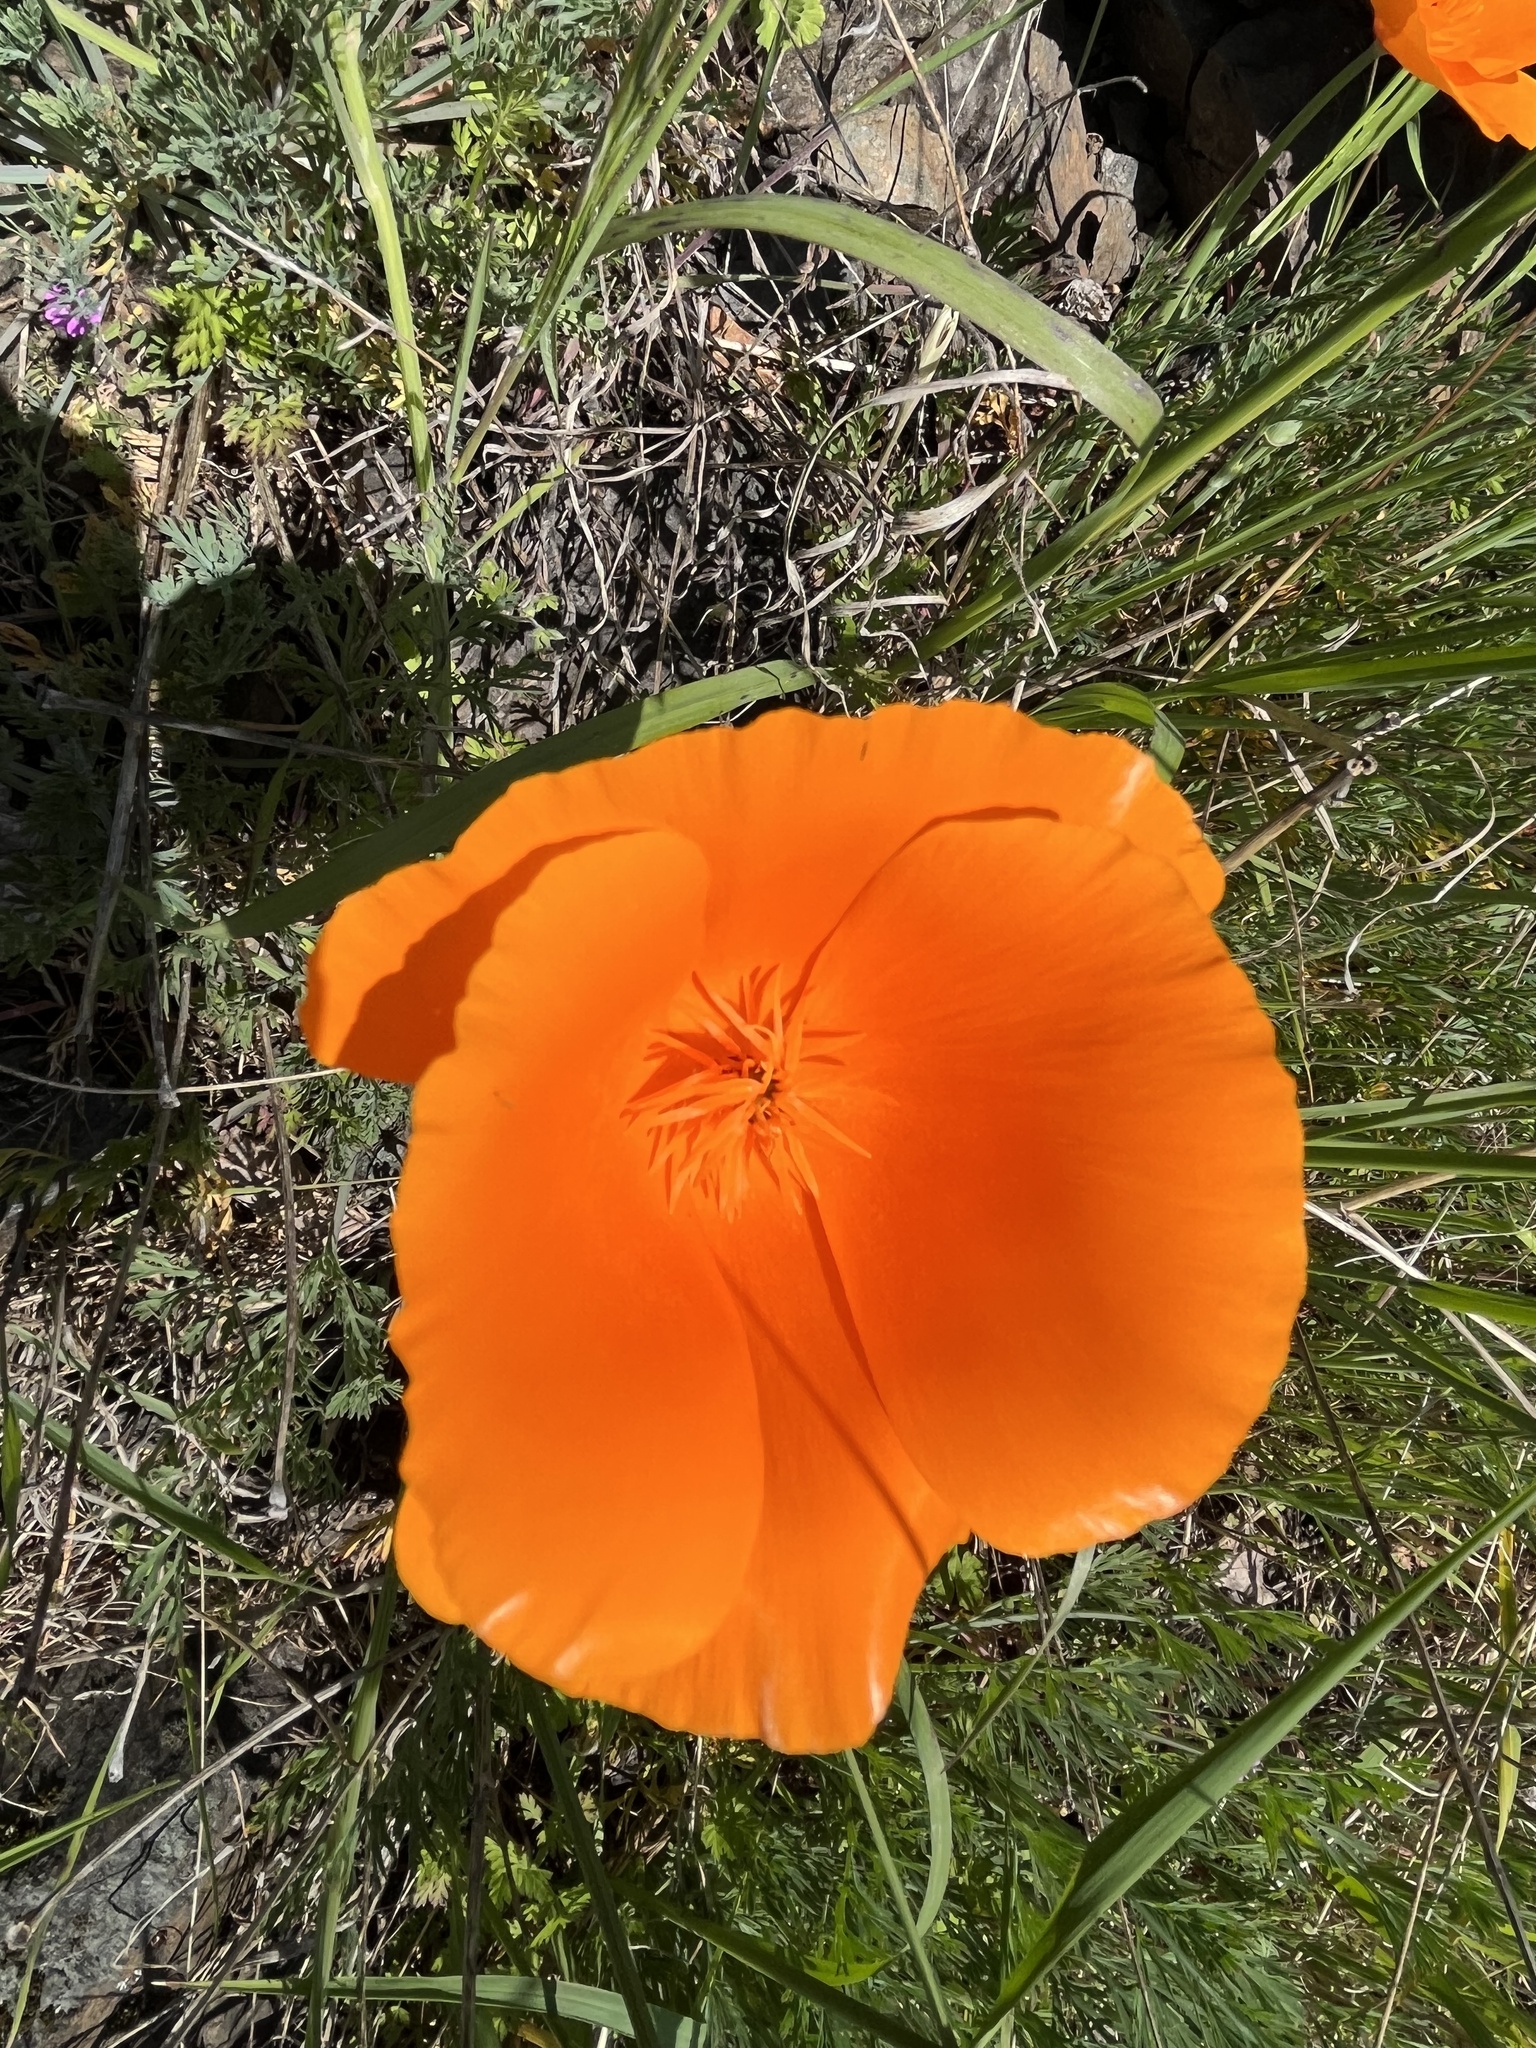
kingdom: Plantae
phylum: Tracheophyta
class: Magnoliopsida
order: Ranunculales
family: Papaveraceae
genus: Eschscholzia
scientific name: Eschscholzia californica
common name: California poppy
